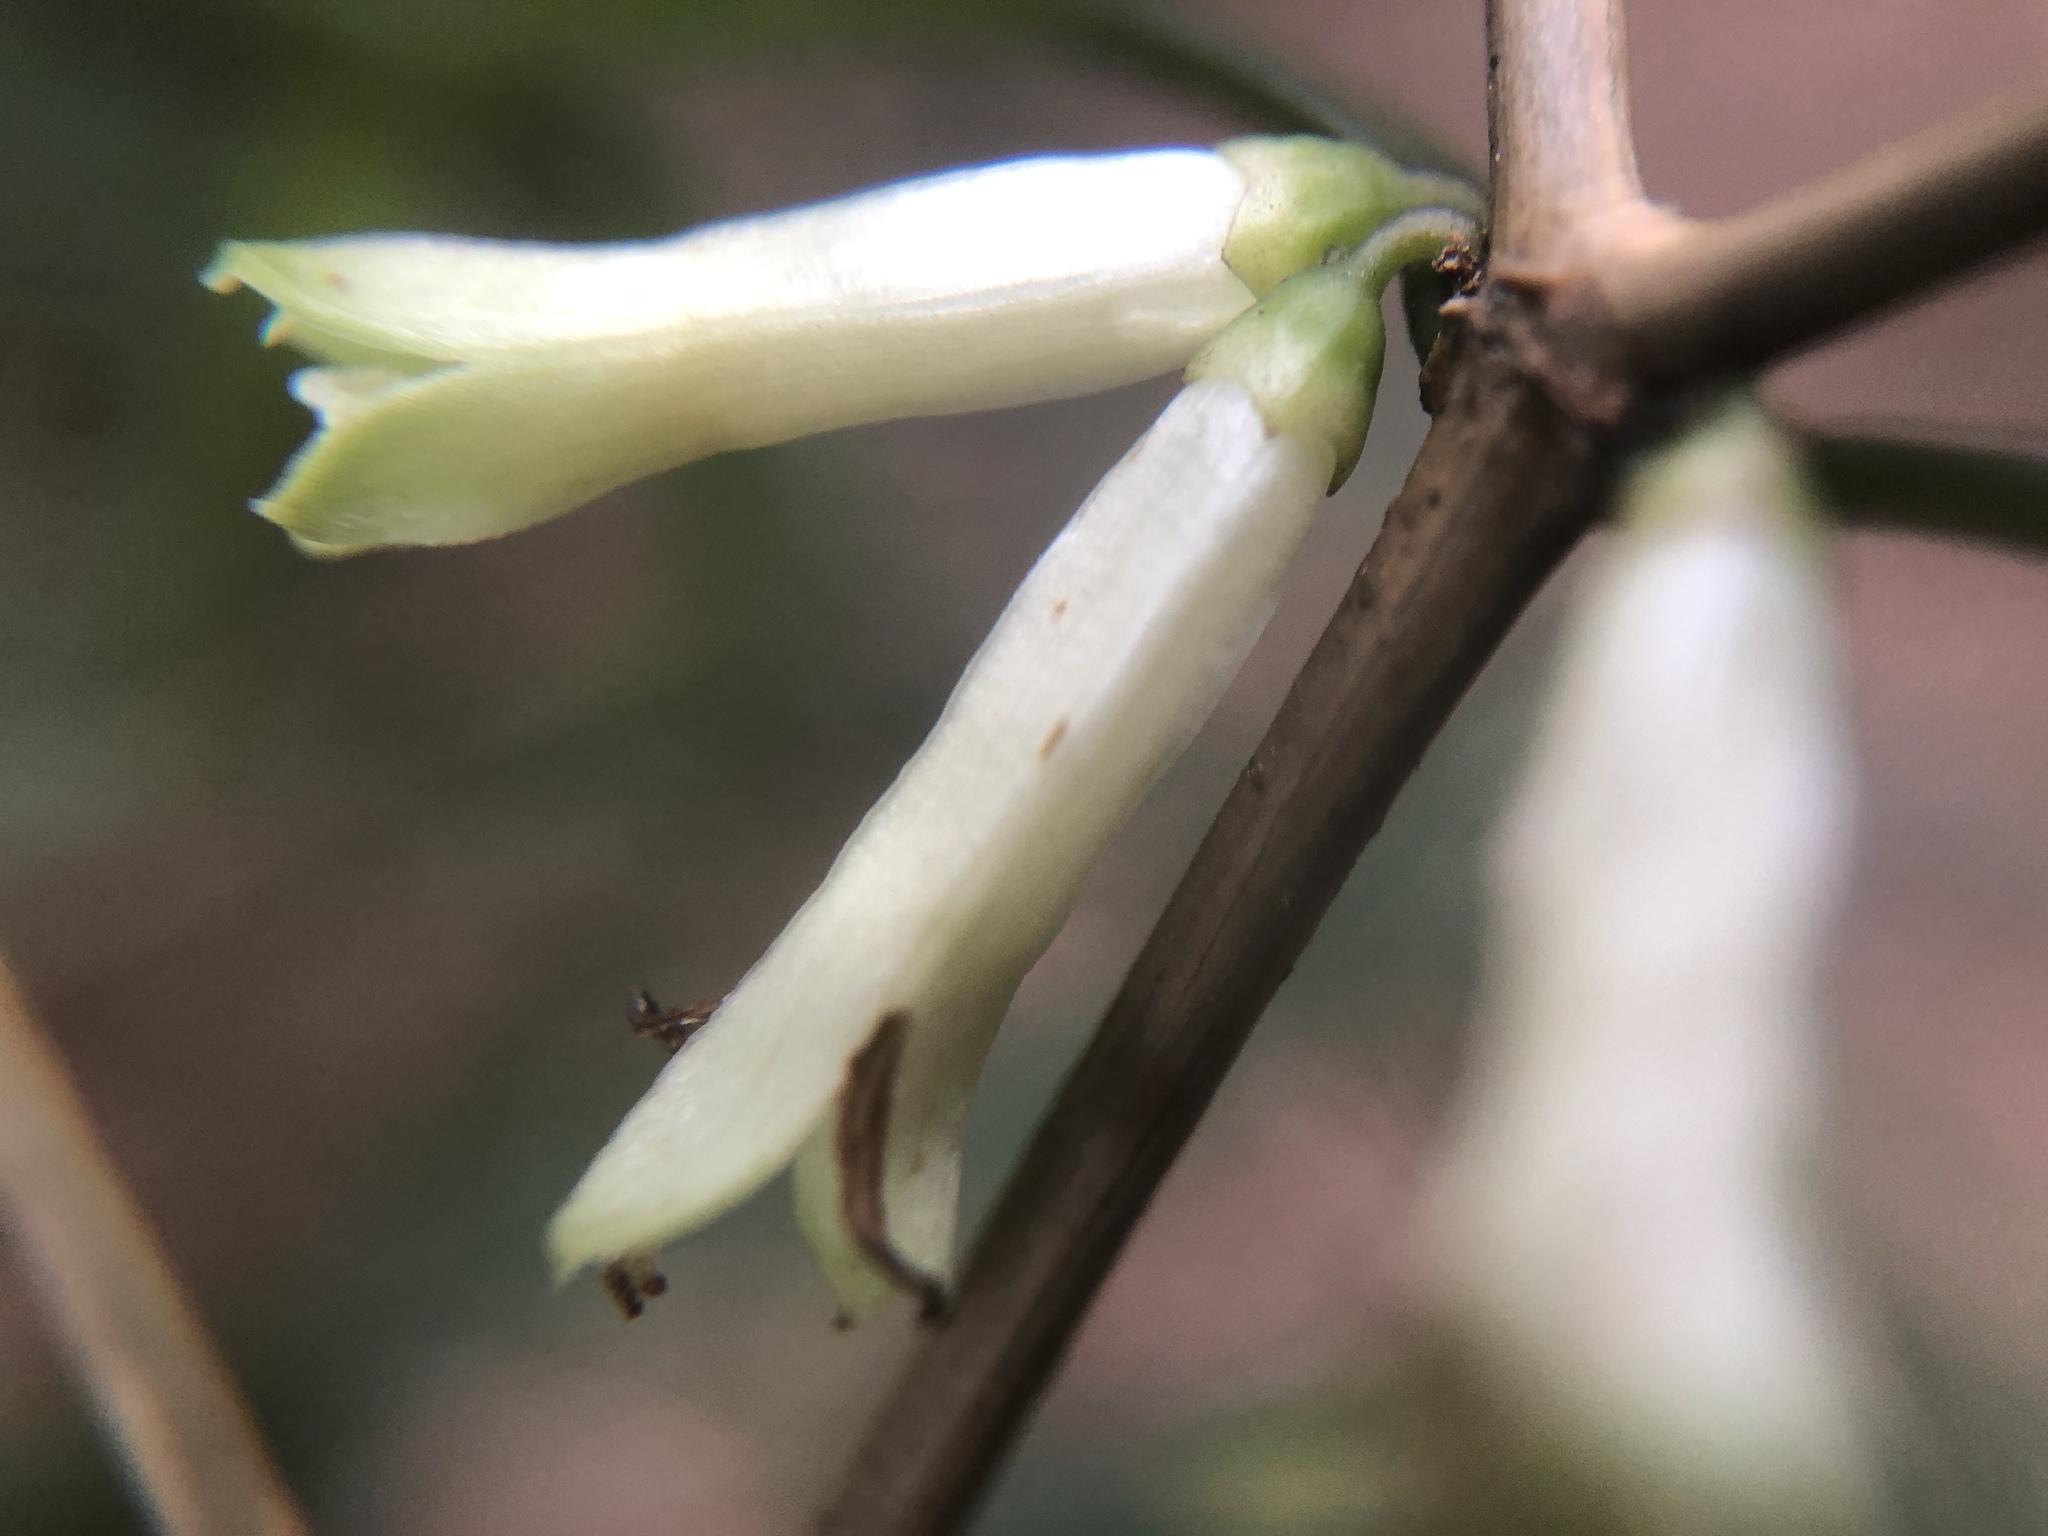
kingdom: Plantae
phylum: Tracheophyta
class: Magnoliopsida
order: Gentianales
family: Rubiaceae
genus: Damnacanthus
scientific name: Damnacanthus angustifolius
